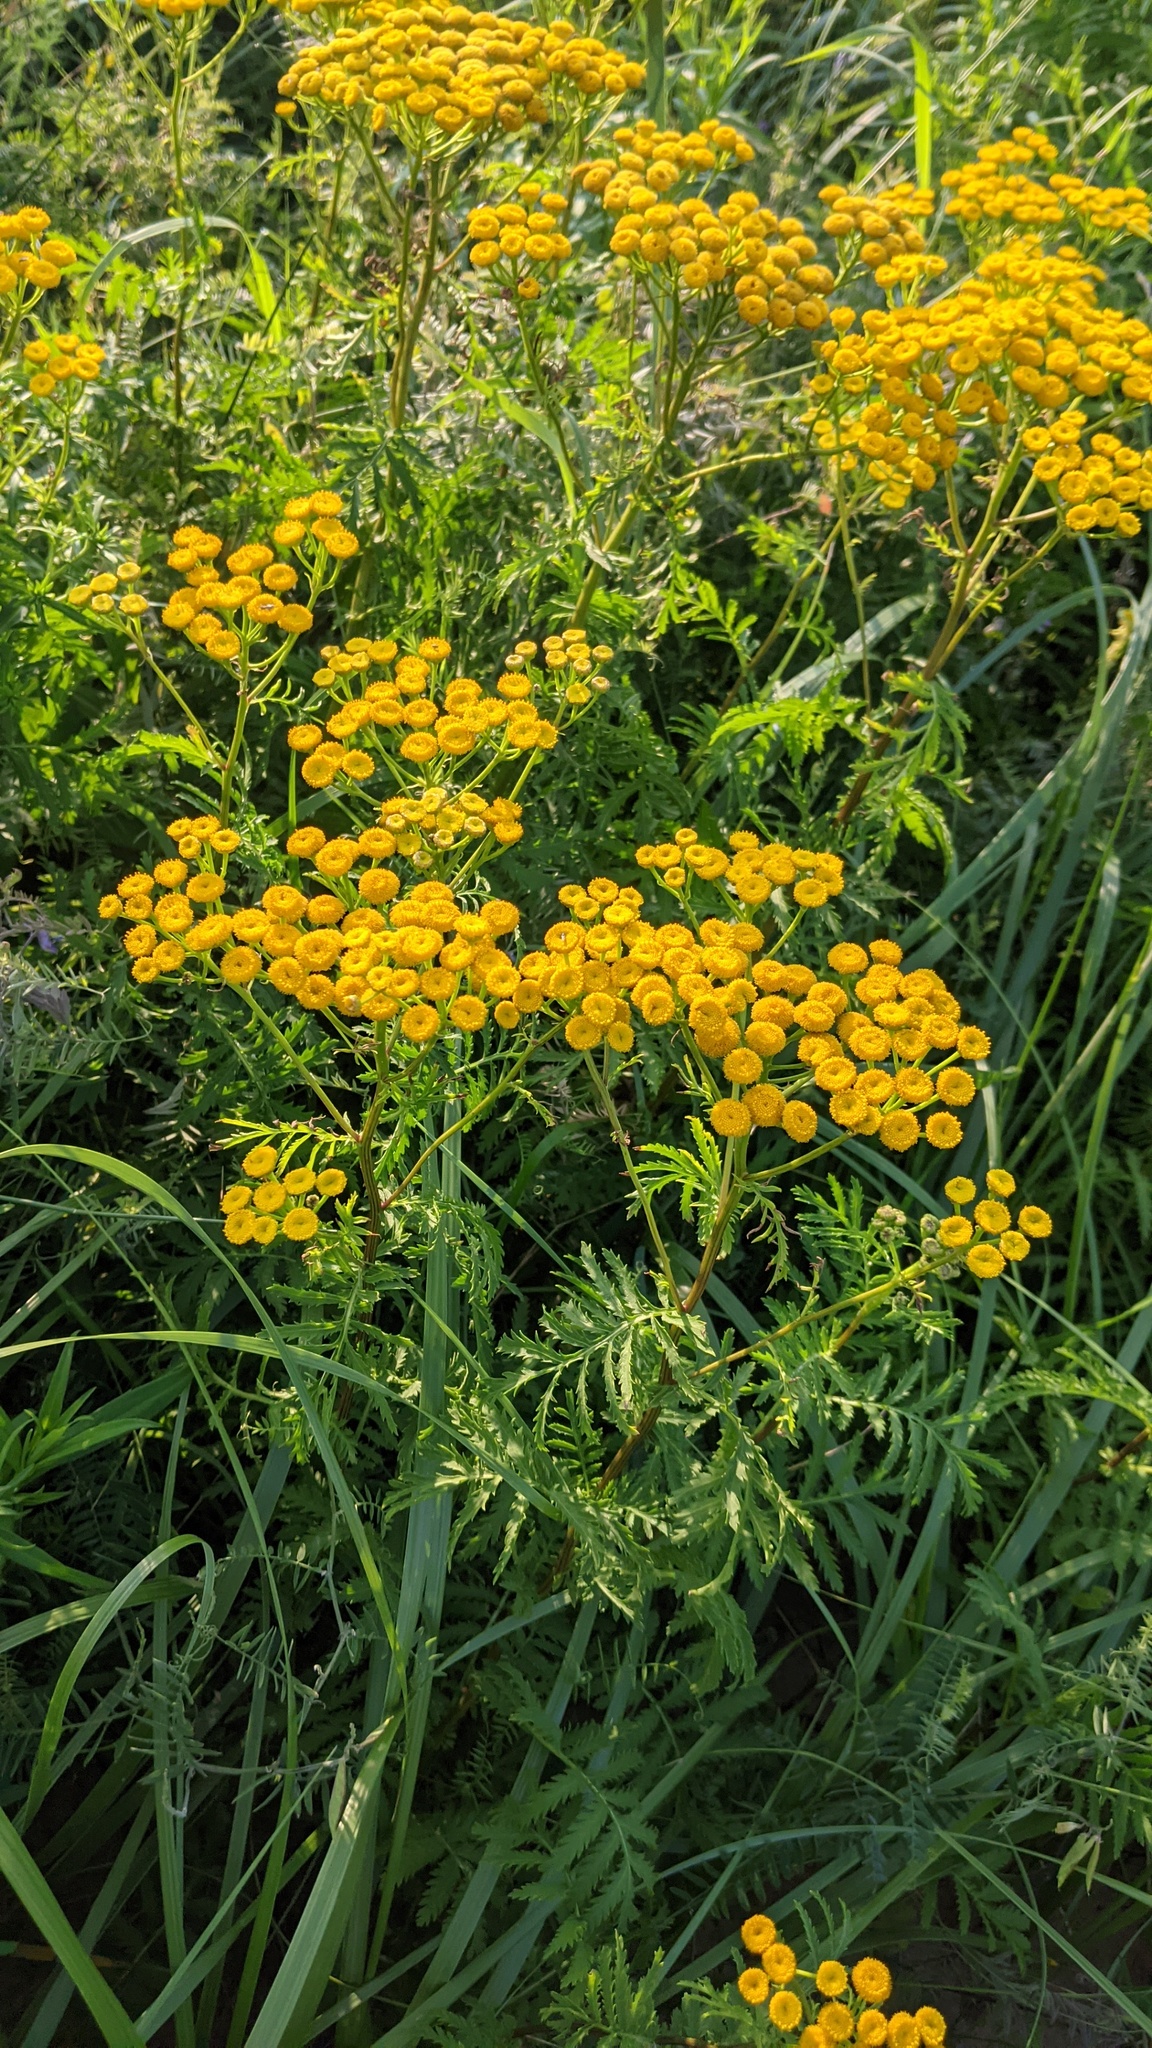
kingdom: Plantae
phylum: Tracheophyta
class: Magnoliopsida
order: Asterales
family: Asteraceae
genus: Tanacetum
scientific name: Tanacetum vulgare
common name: Common tansy
